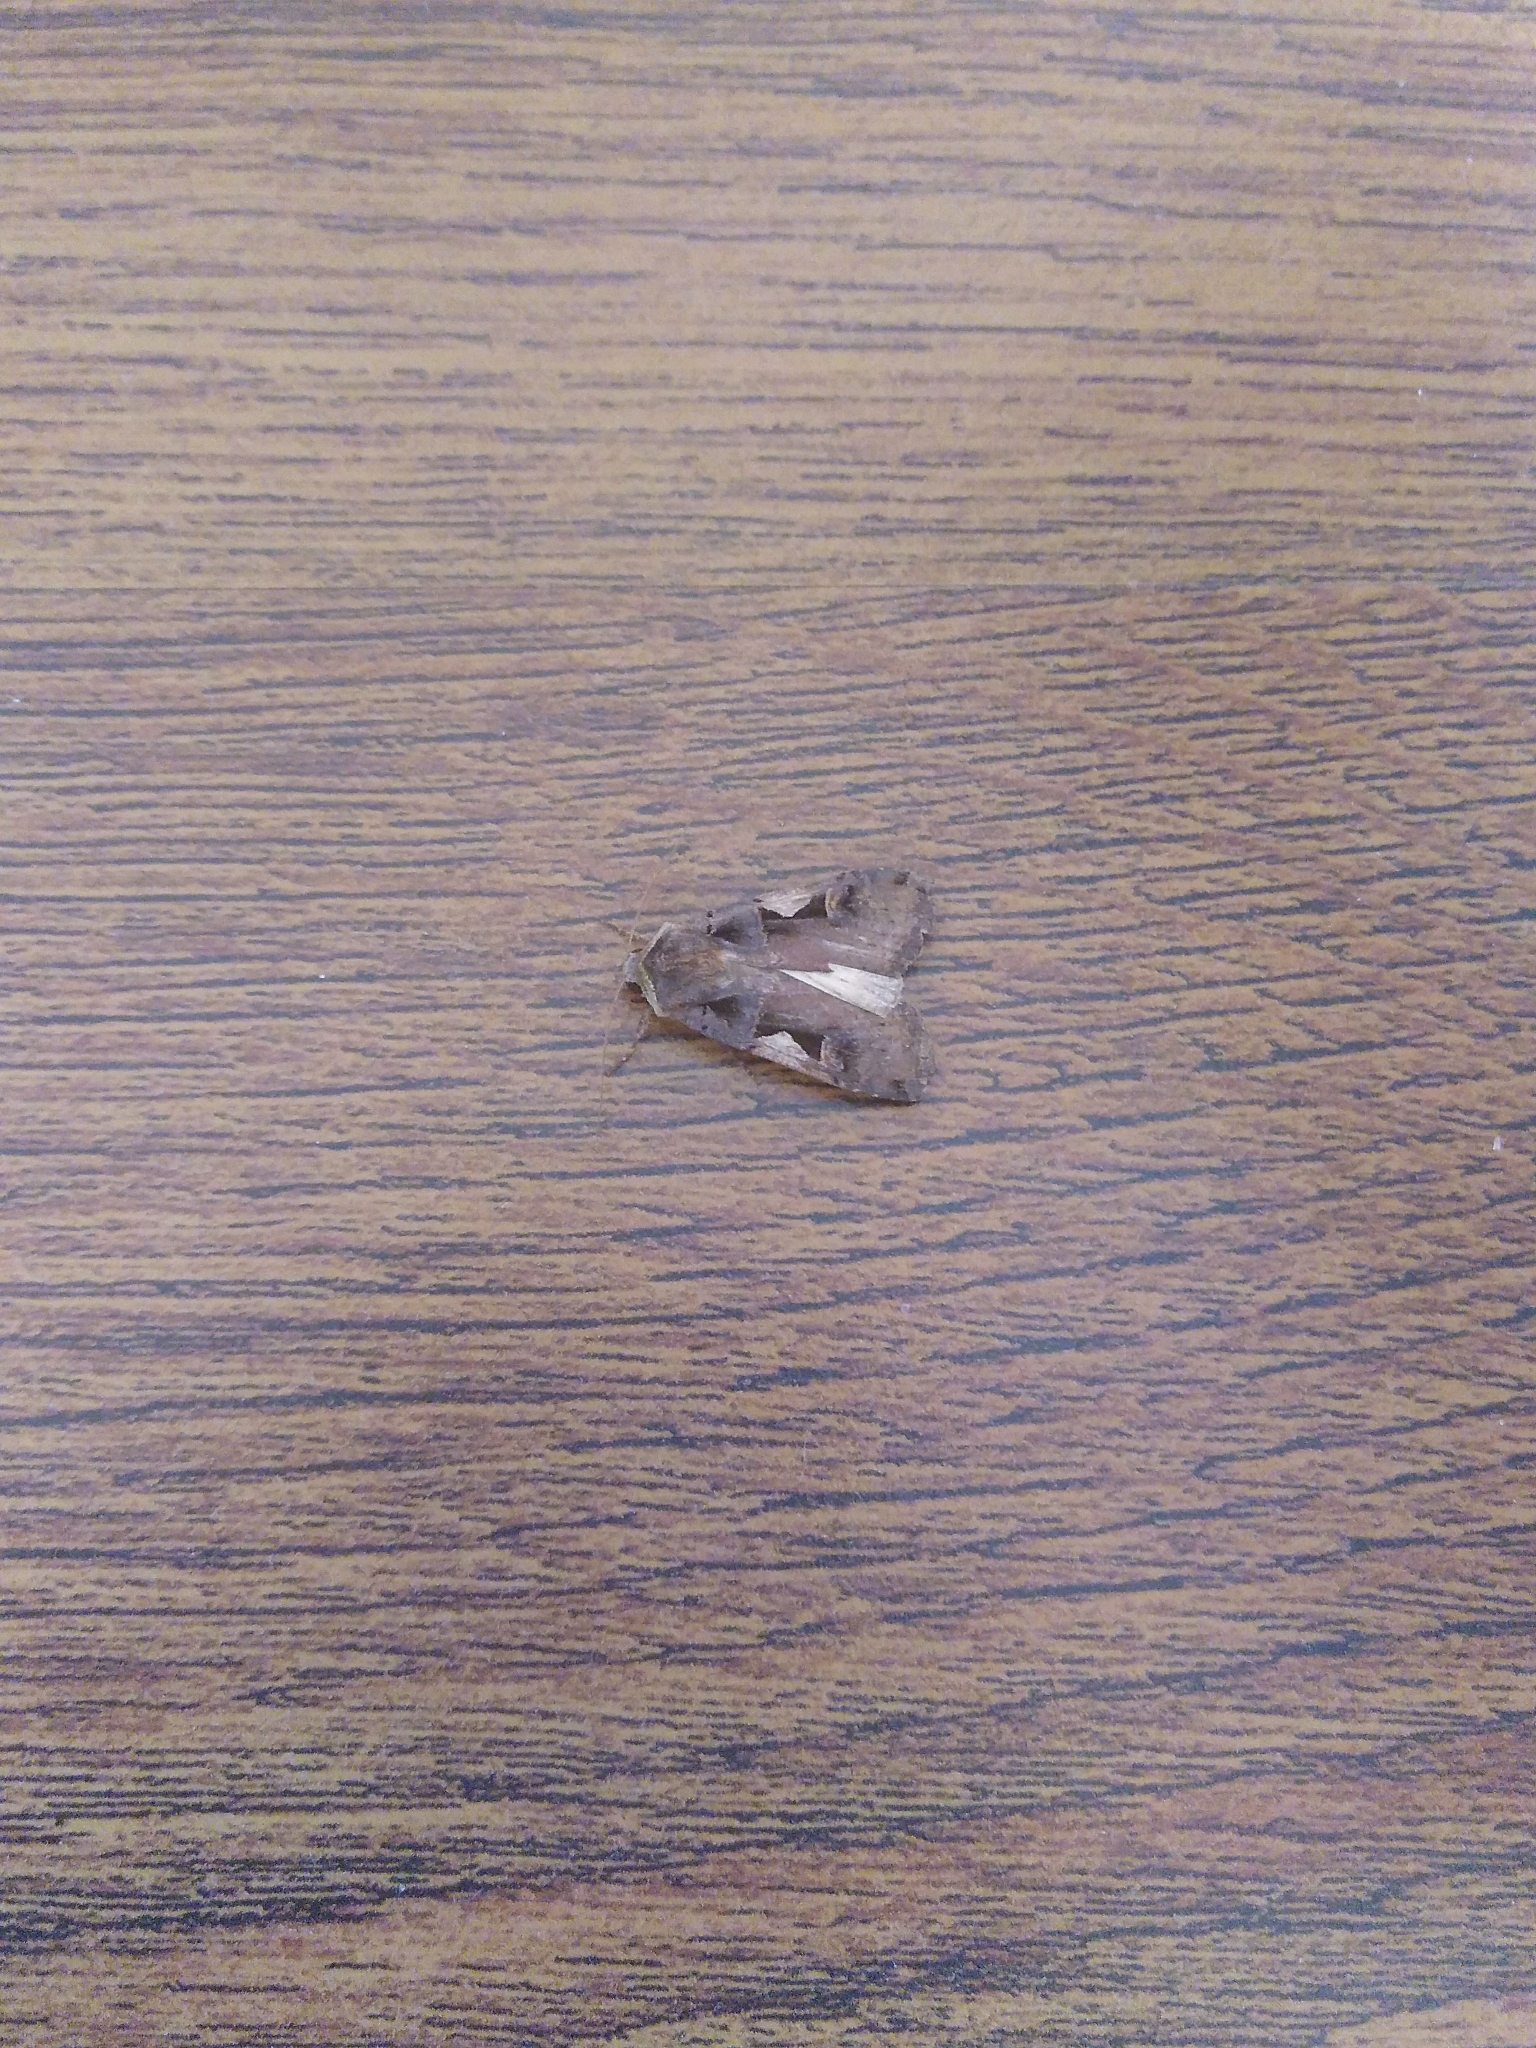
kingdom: Animalia
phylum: Arthropoda
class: Insecta
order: Lepidoptera
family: Noctuidae
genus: Xestia
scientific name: Xestia c-nigrum
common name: Setaceous hebrew character
